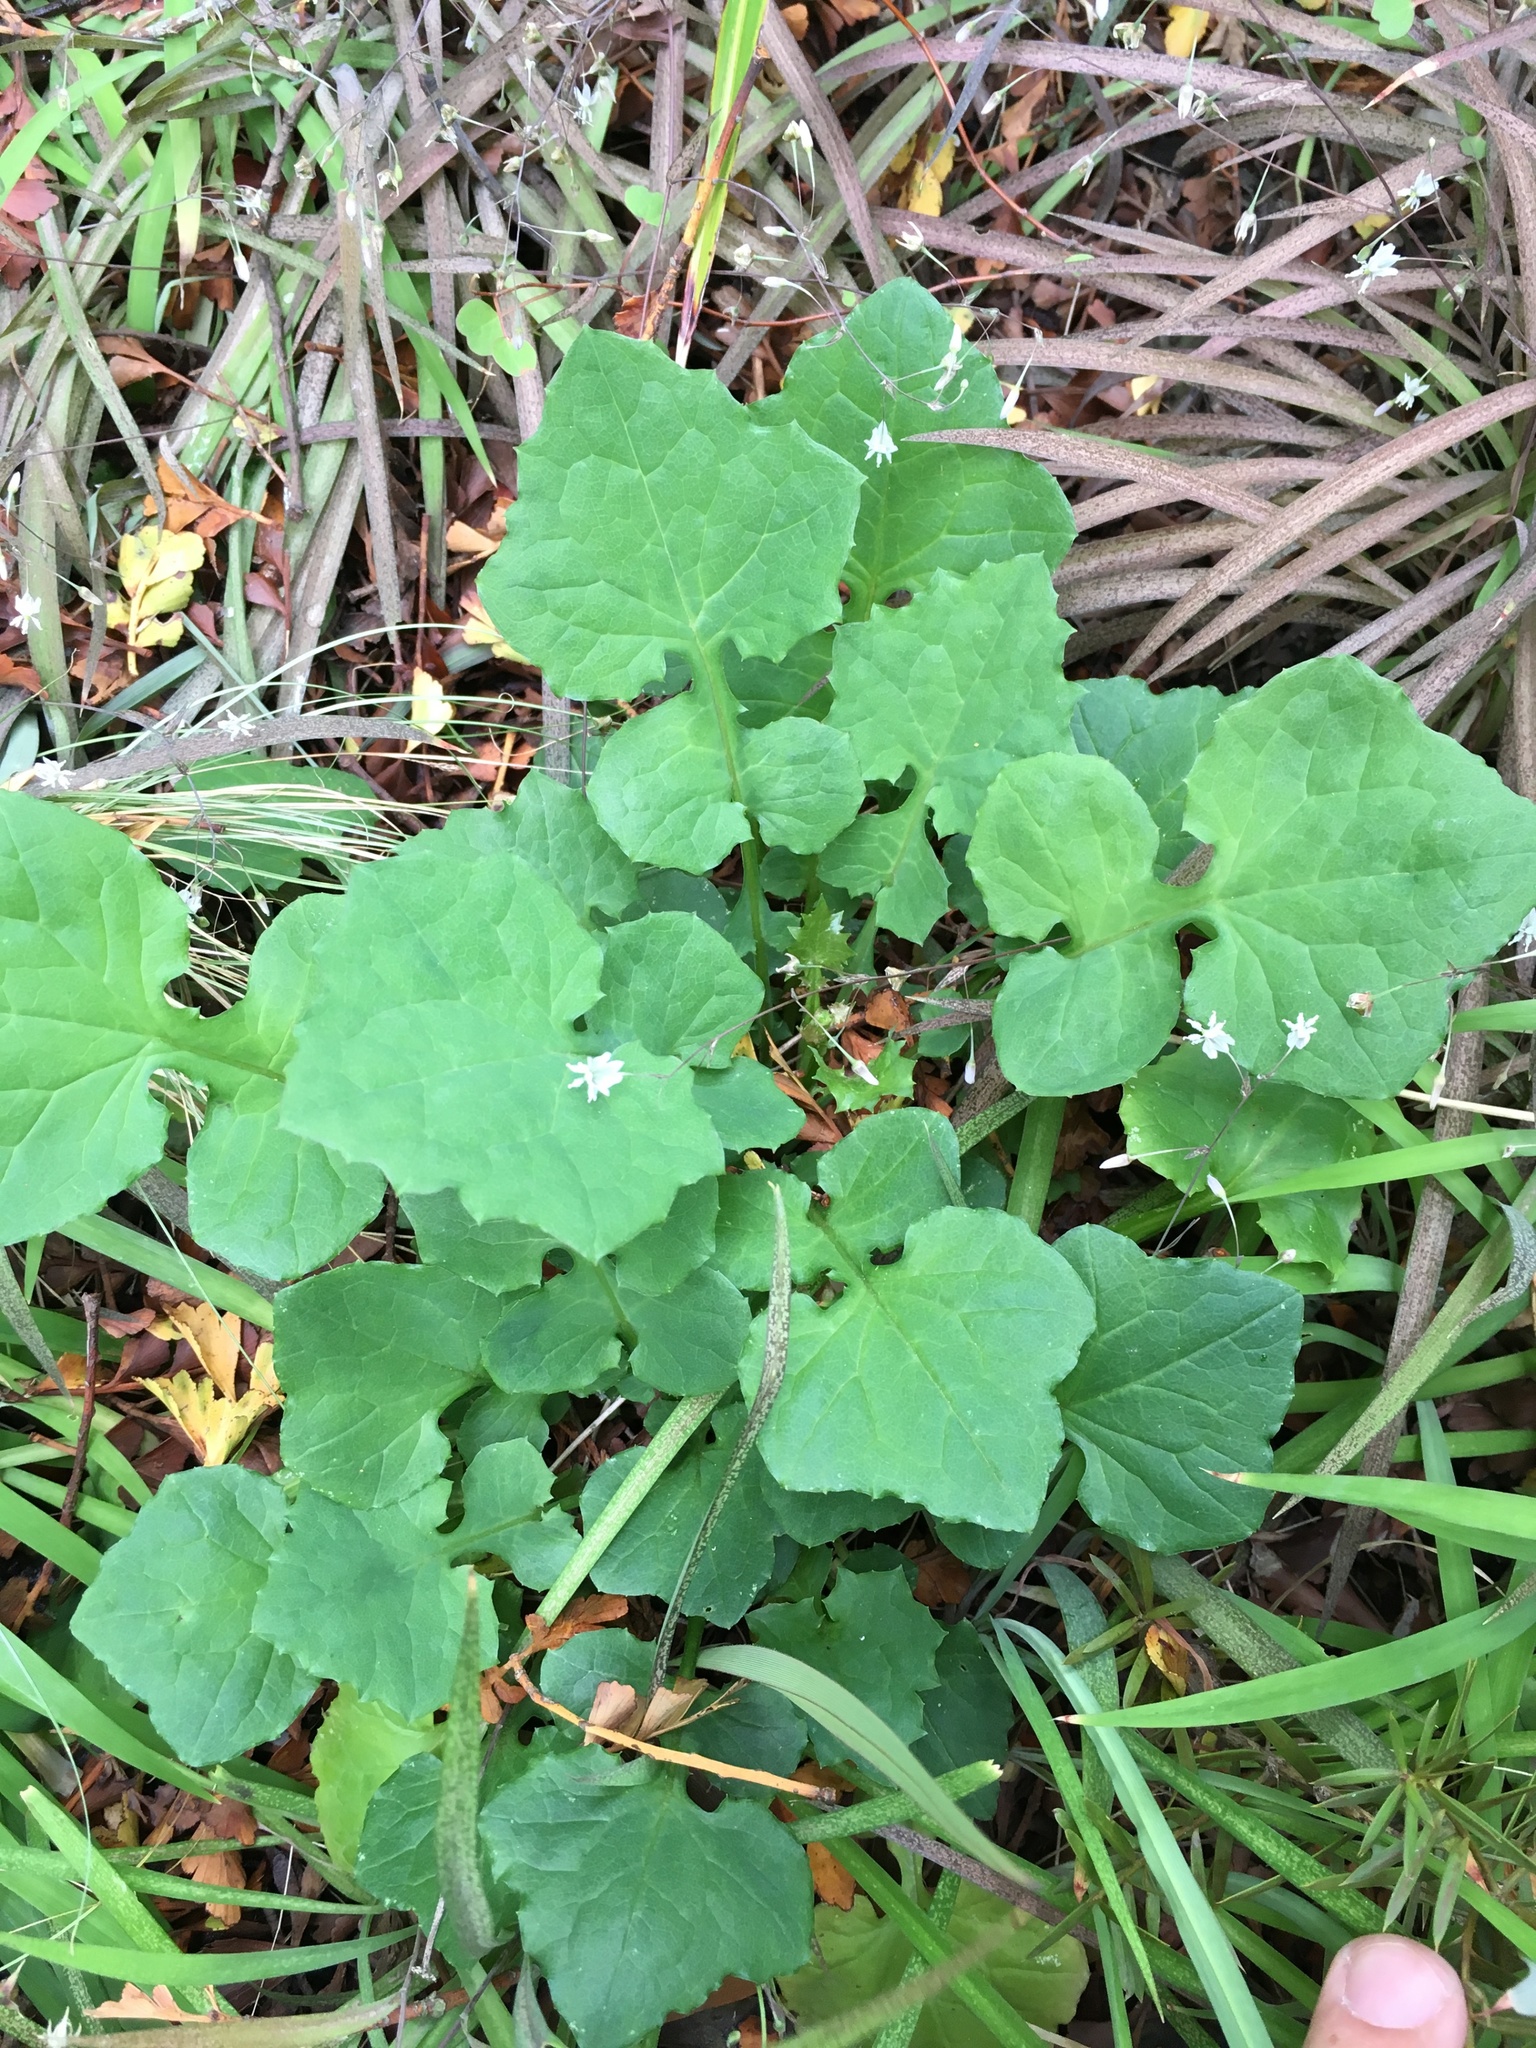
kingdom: Plantae
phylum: Tracheophyta
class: Magnoliopsida
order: Asterales
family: Asteraceae
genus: Mycelis
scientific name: Mycelis muralis
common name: Wall lettuce
